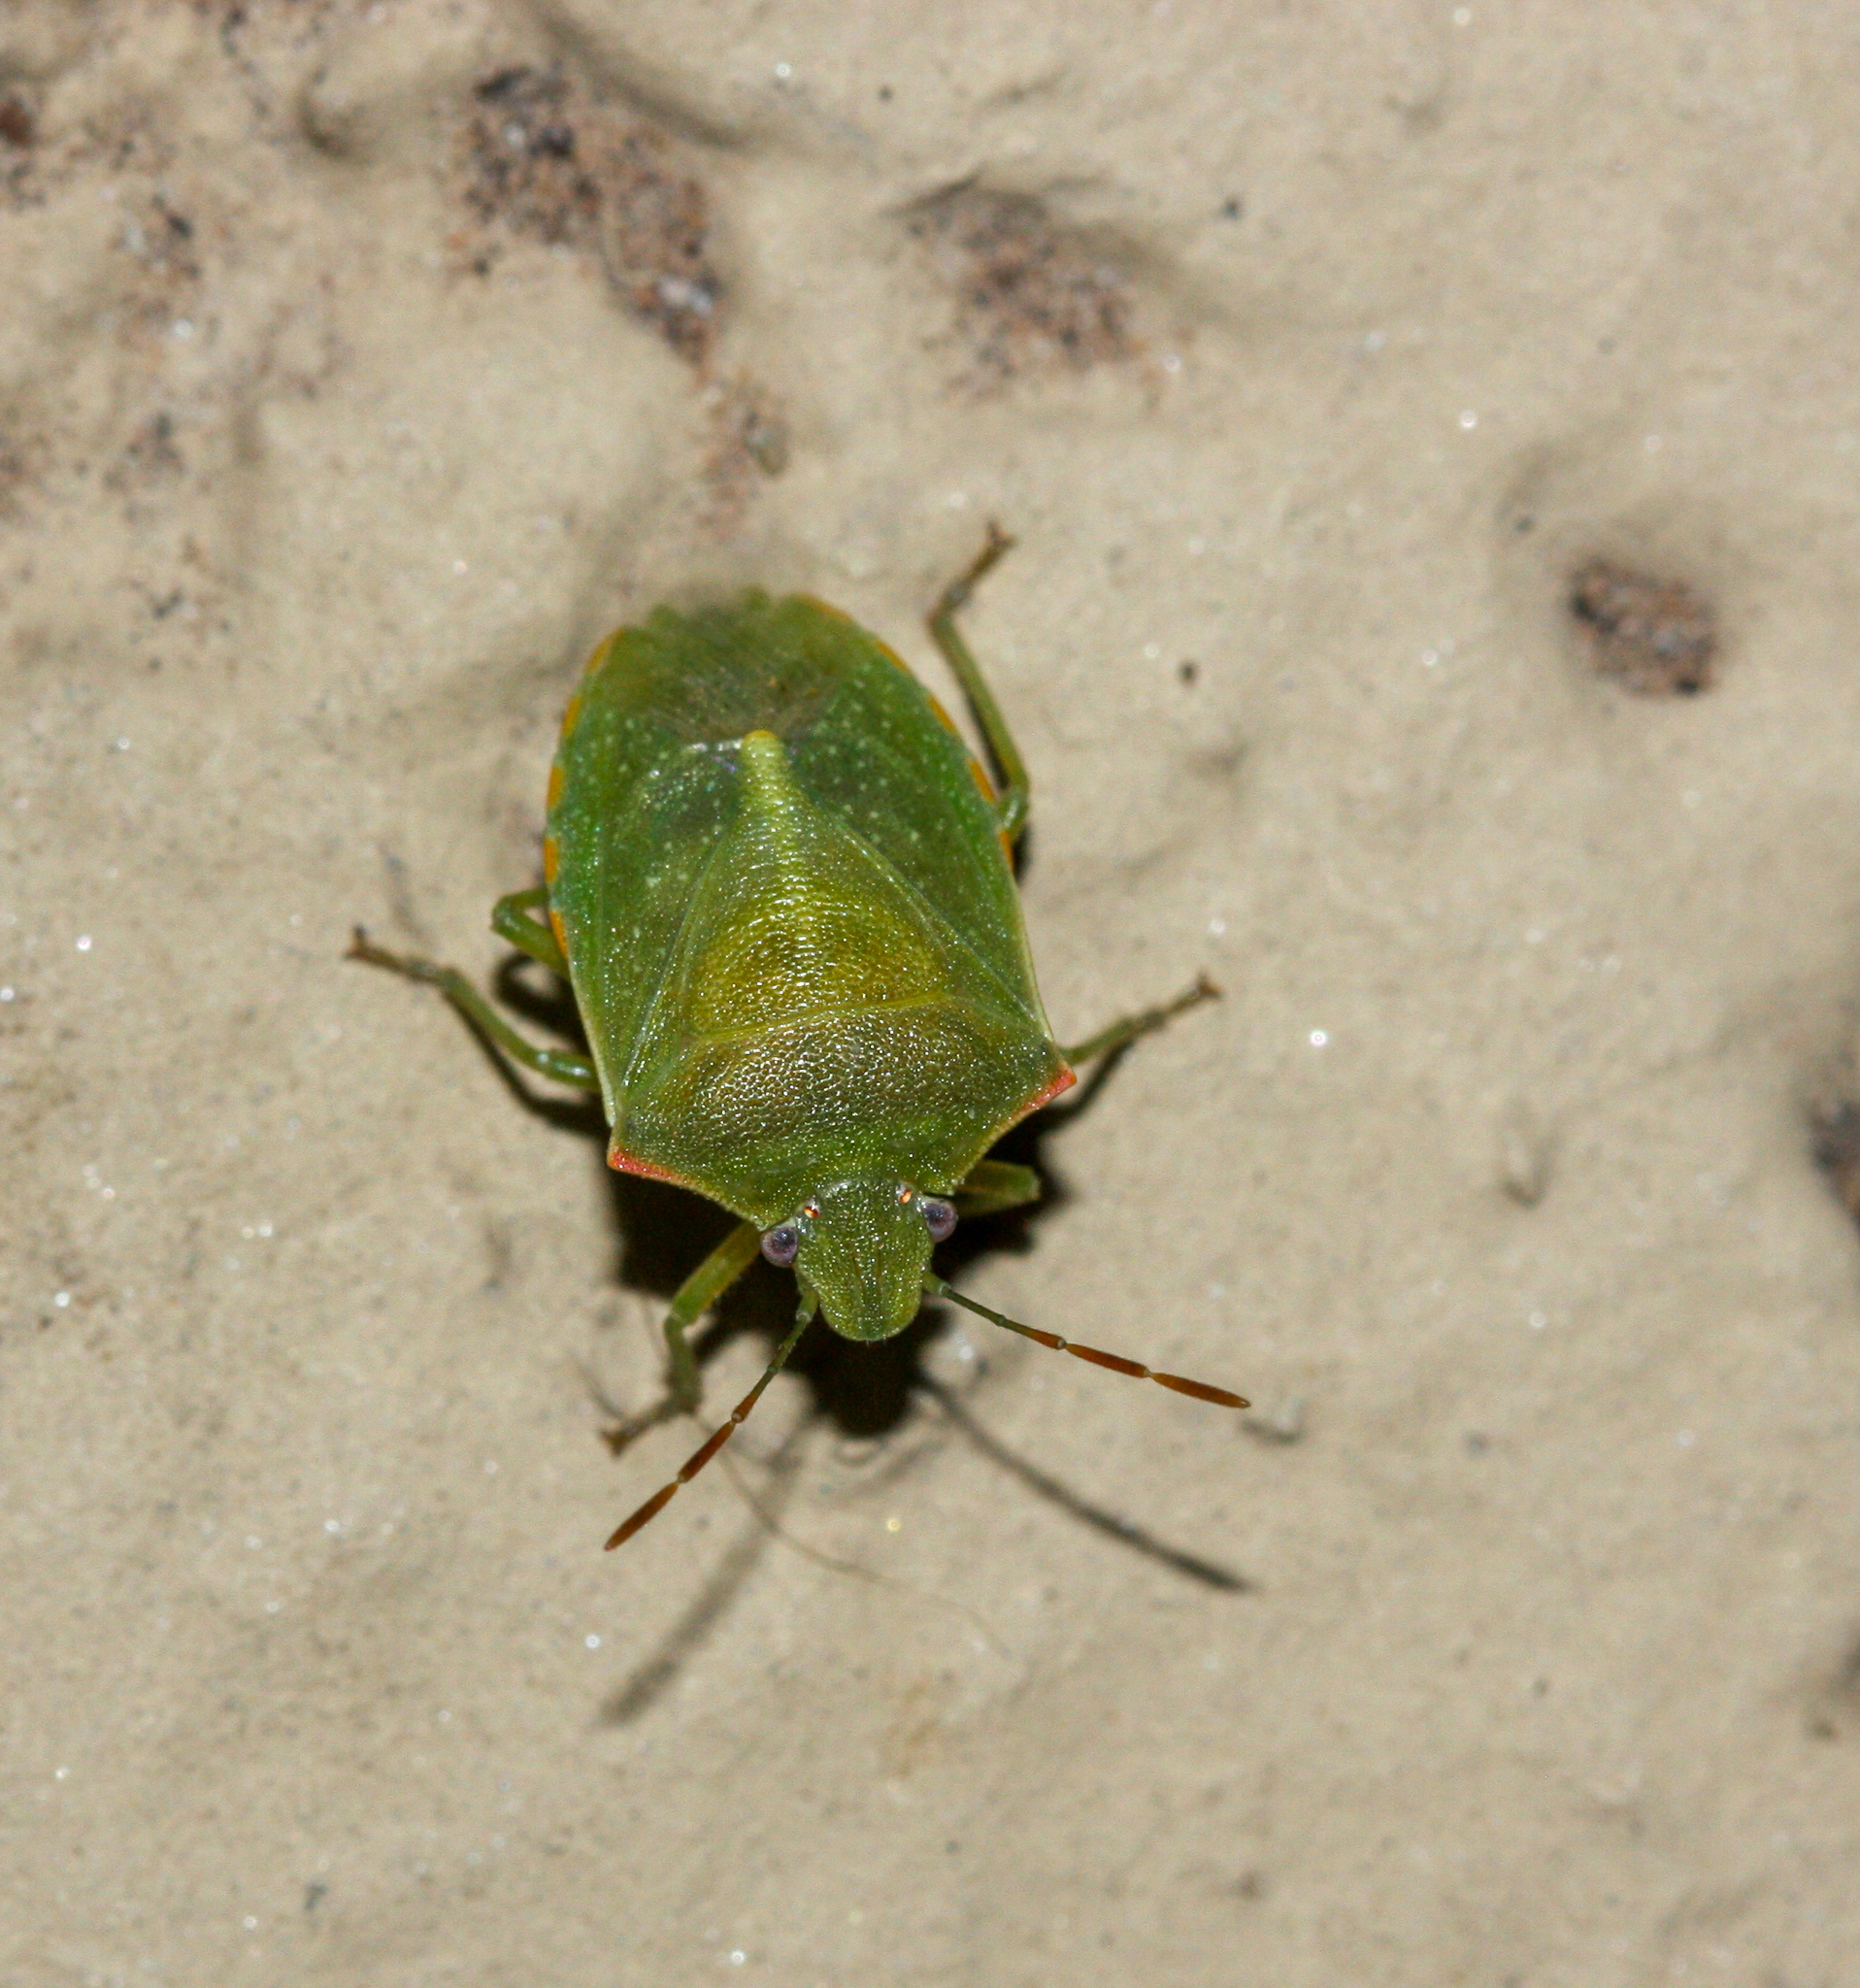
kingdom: Animalia
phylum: Arthropoda
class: Insecta
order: Hemiptera
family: Pentatomidae
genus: Thyanta
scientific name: Thyanta accerra
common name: Stink bug
